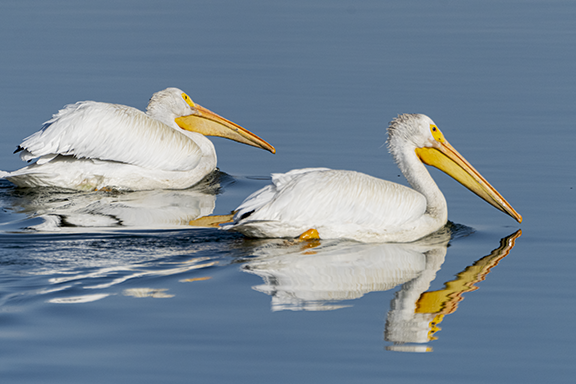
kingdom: Animalia
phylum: Chordata
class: Aves
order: Pelecaniformes
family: Pelecanidae
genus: Pelecanus
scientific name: Pelecanus erythrorhynchos
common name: American white pelican
